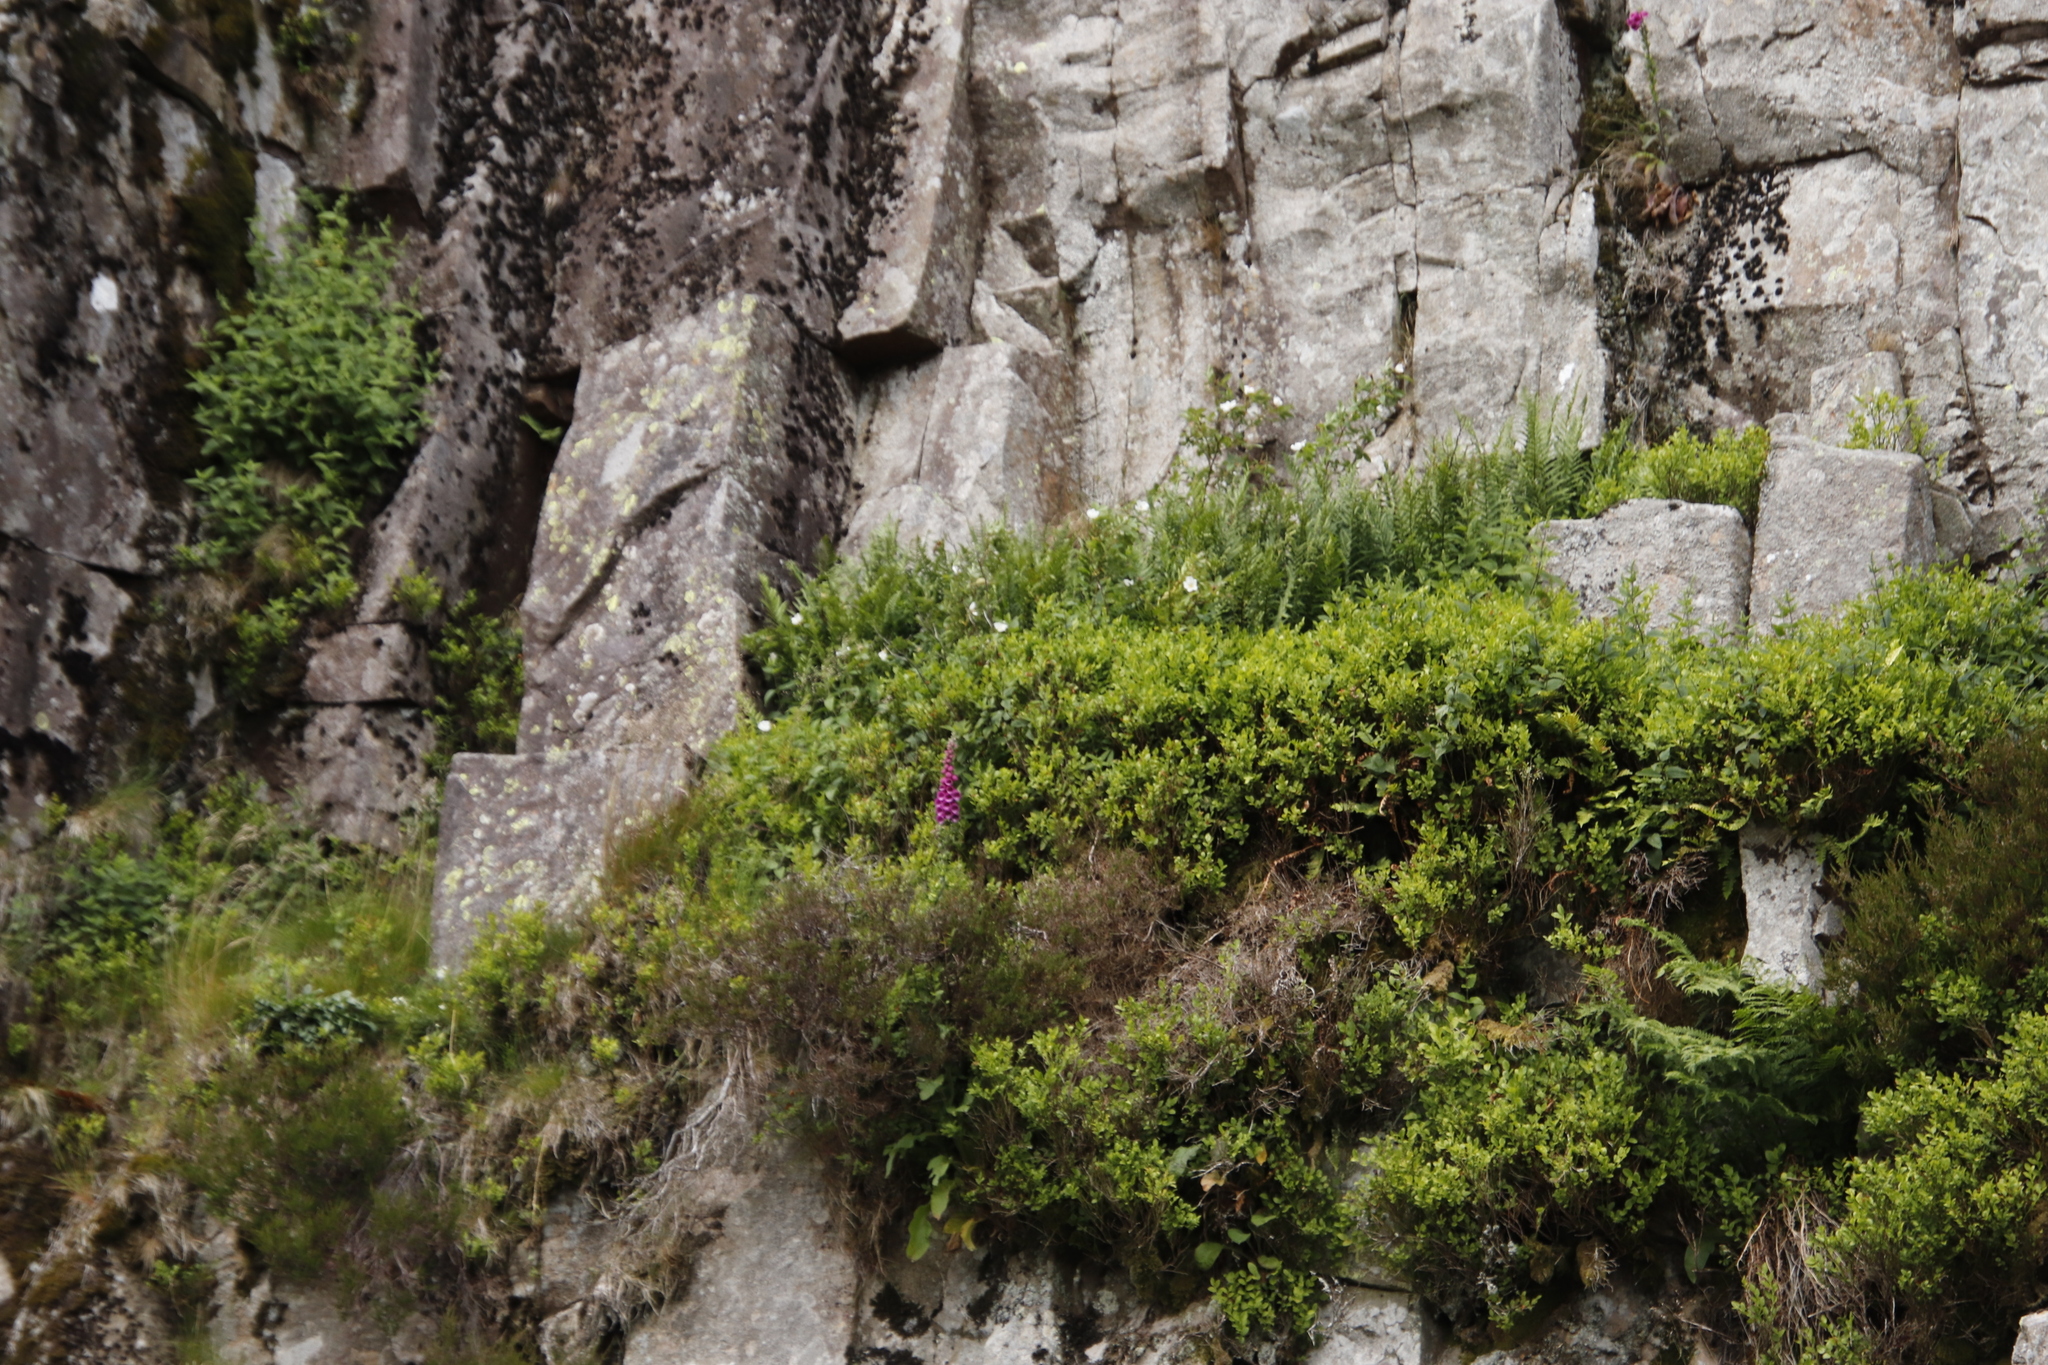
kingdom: Plantae
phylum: Tracheophyta
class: Magnoliopsida
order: Lamiales
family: Plantaginaceae
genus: Digitalis
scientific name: Digitalis purpurea
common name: Foxglove
